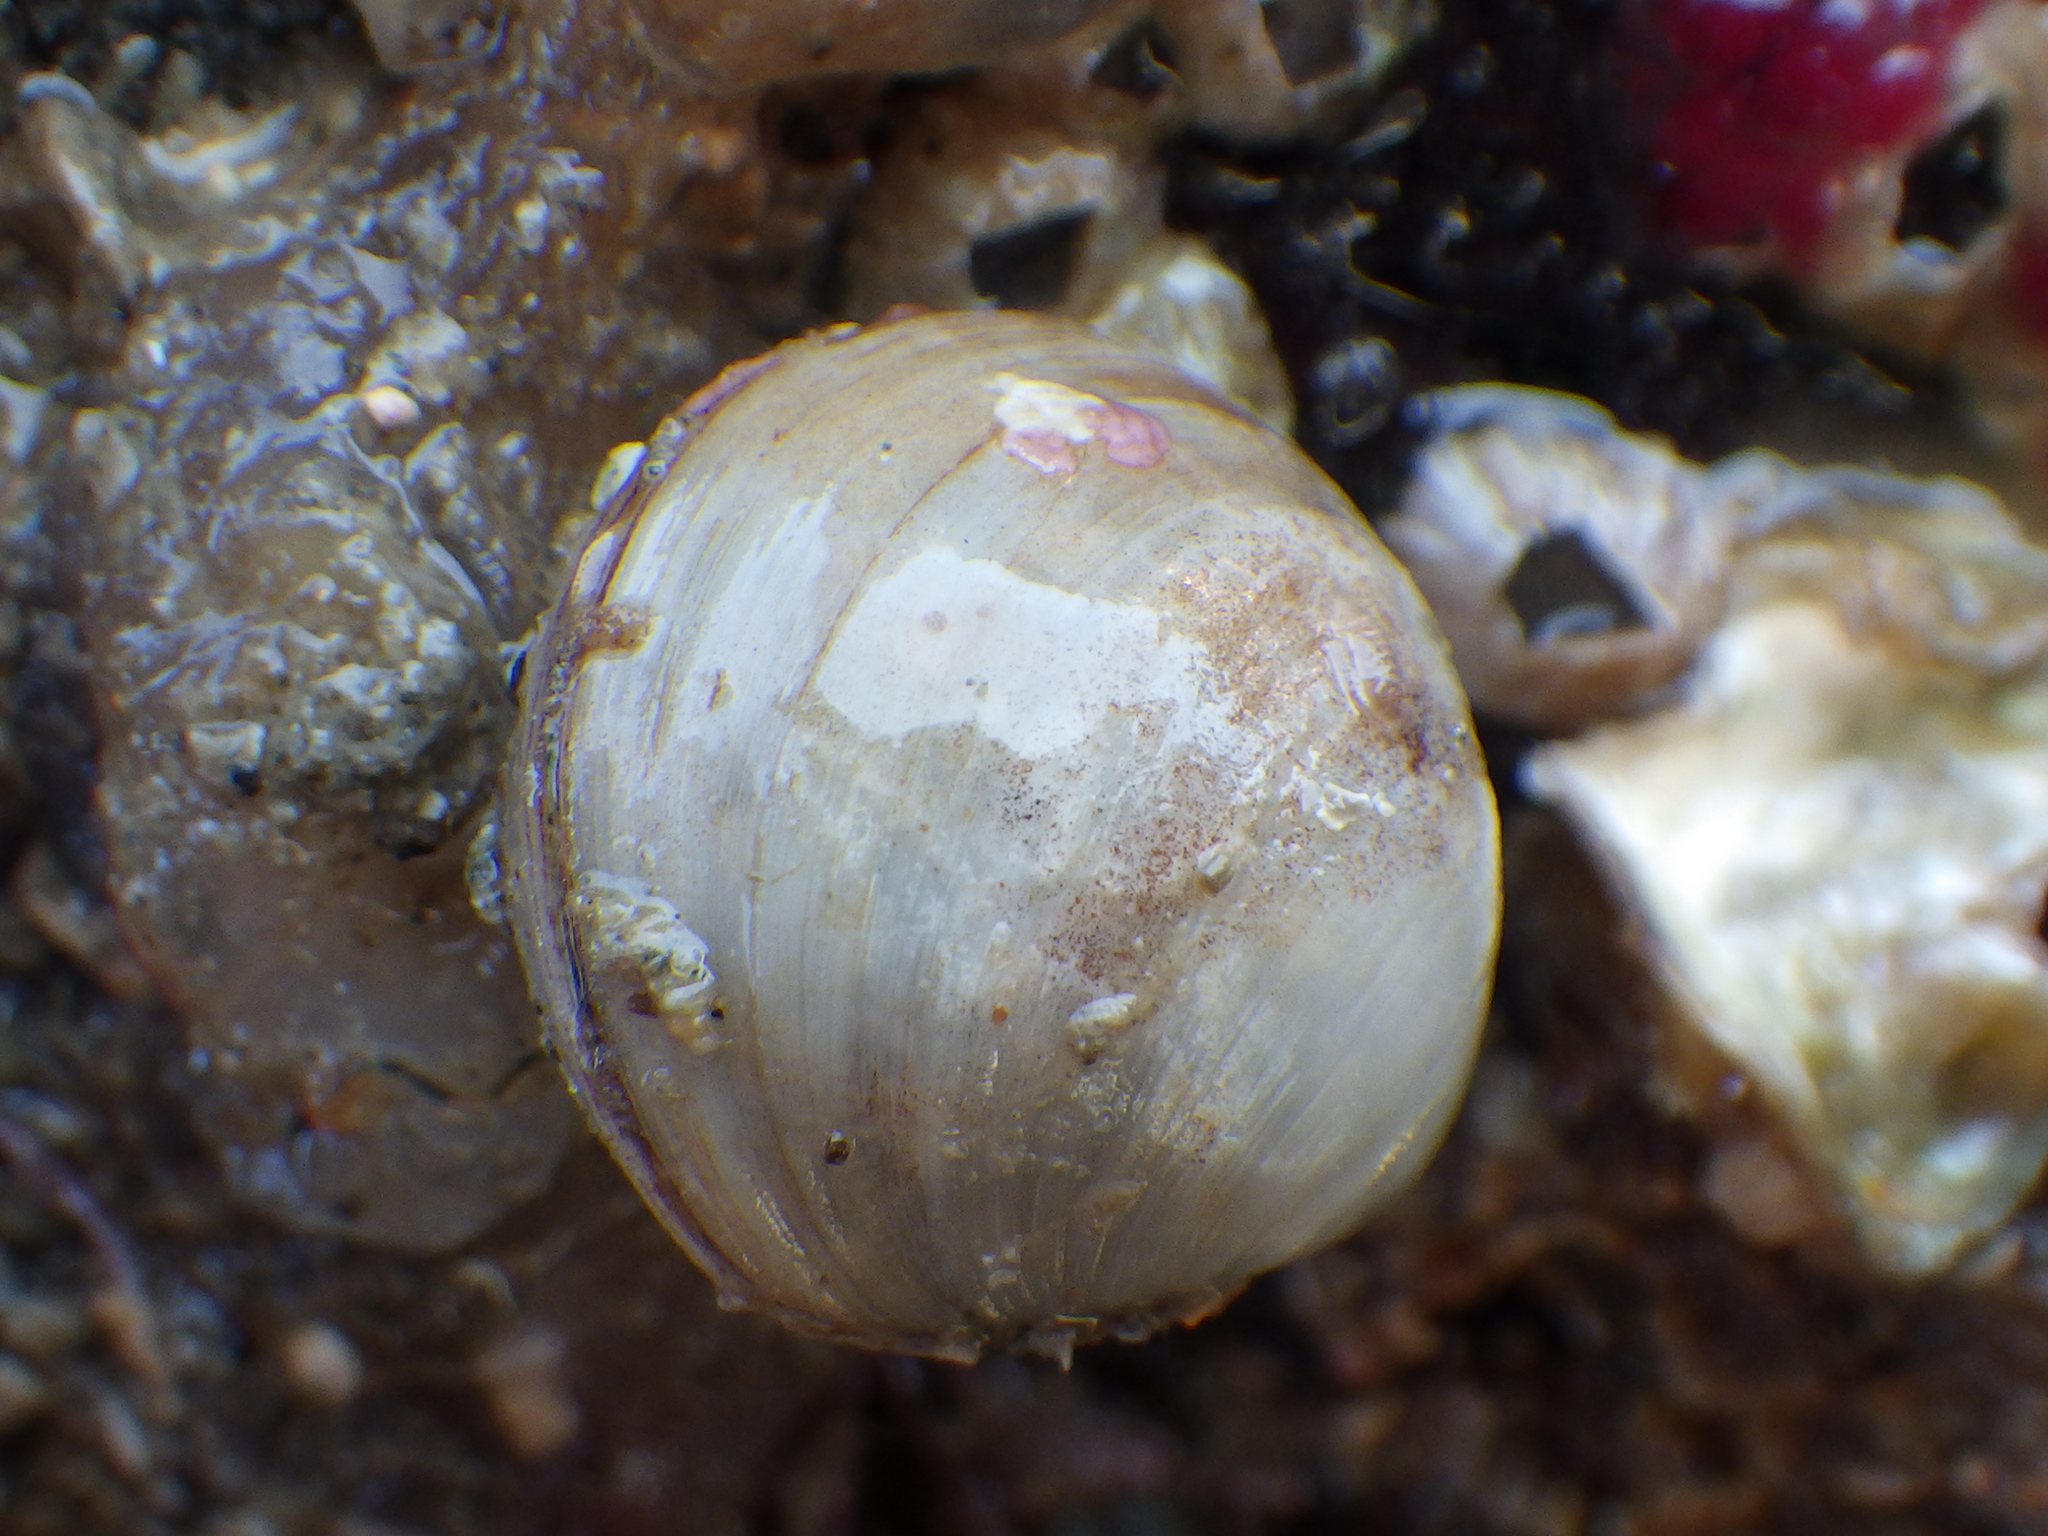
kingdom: Animalia
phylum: Mollusca
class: Bivalvia
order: Venerida
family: Ungulinidae
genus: Zemysina
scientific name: Zemysina striatula
